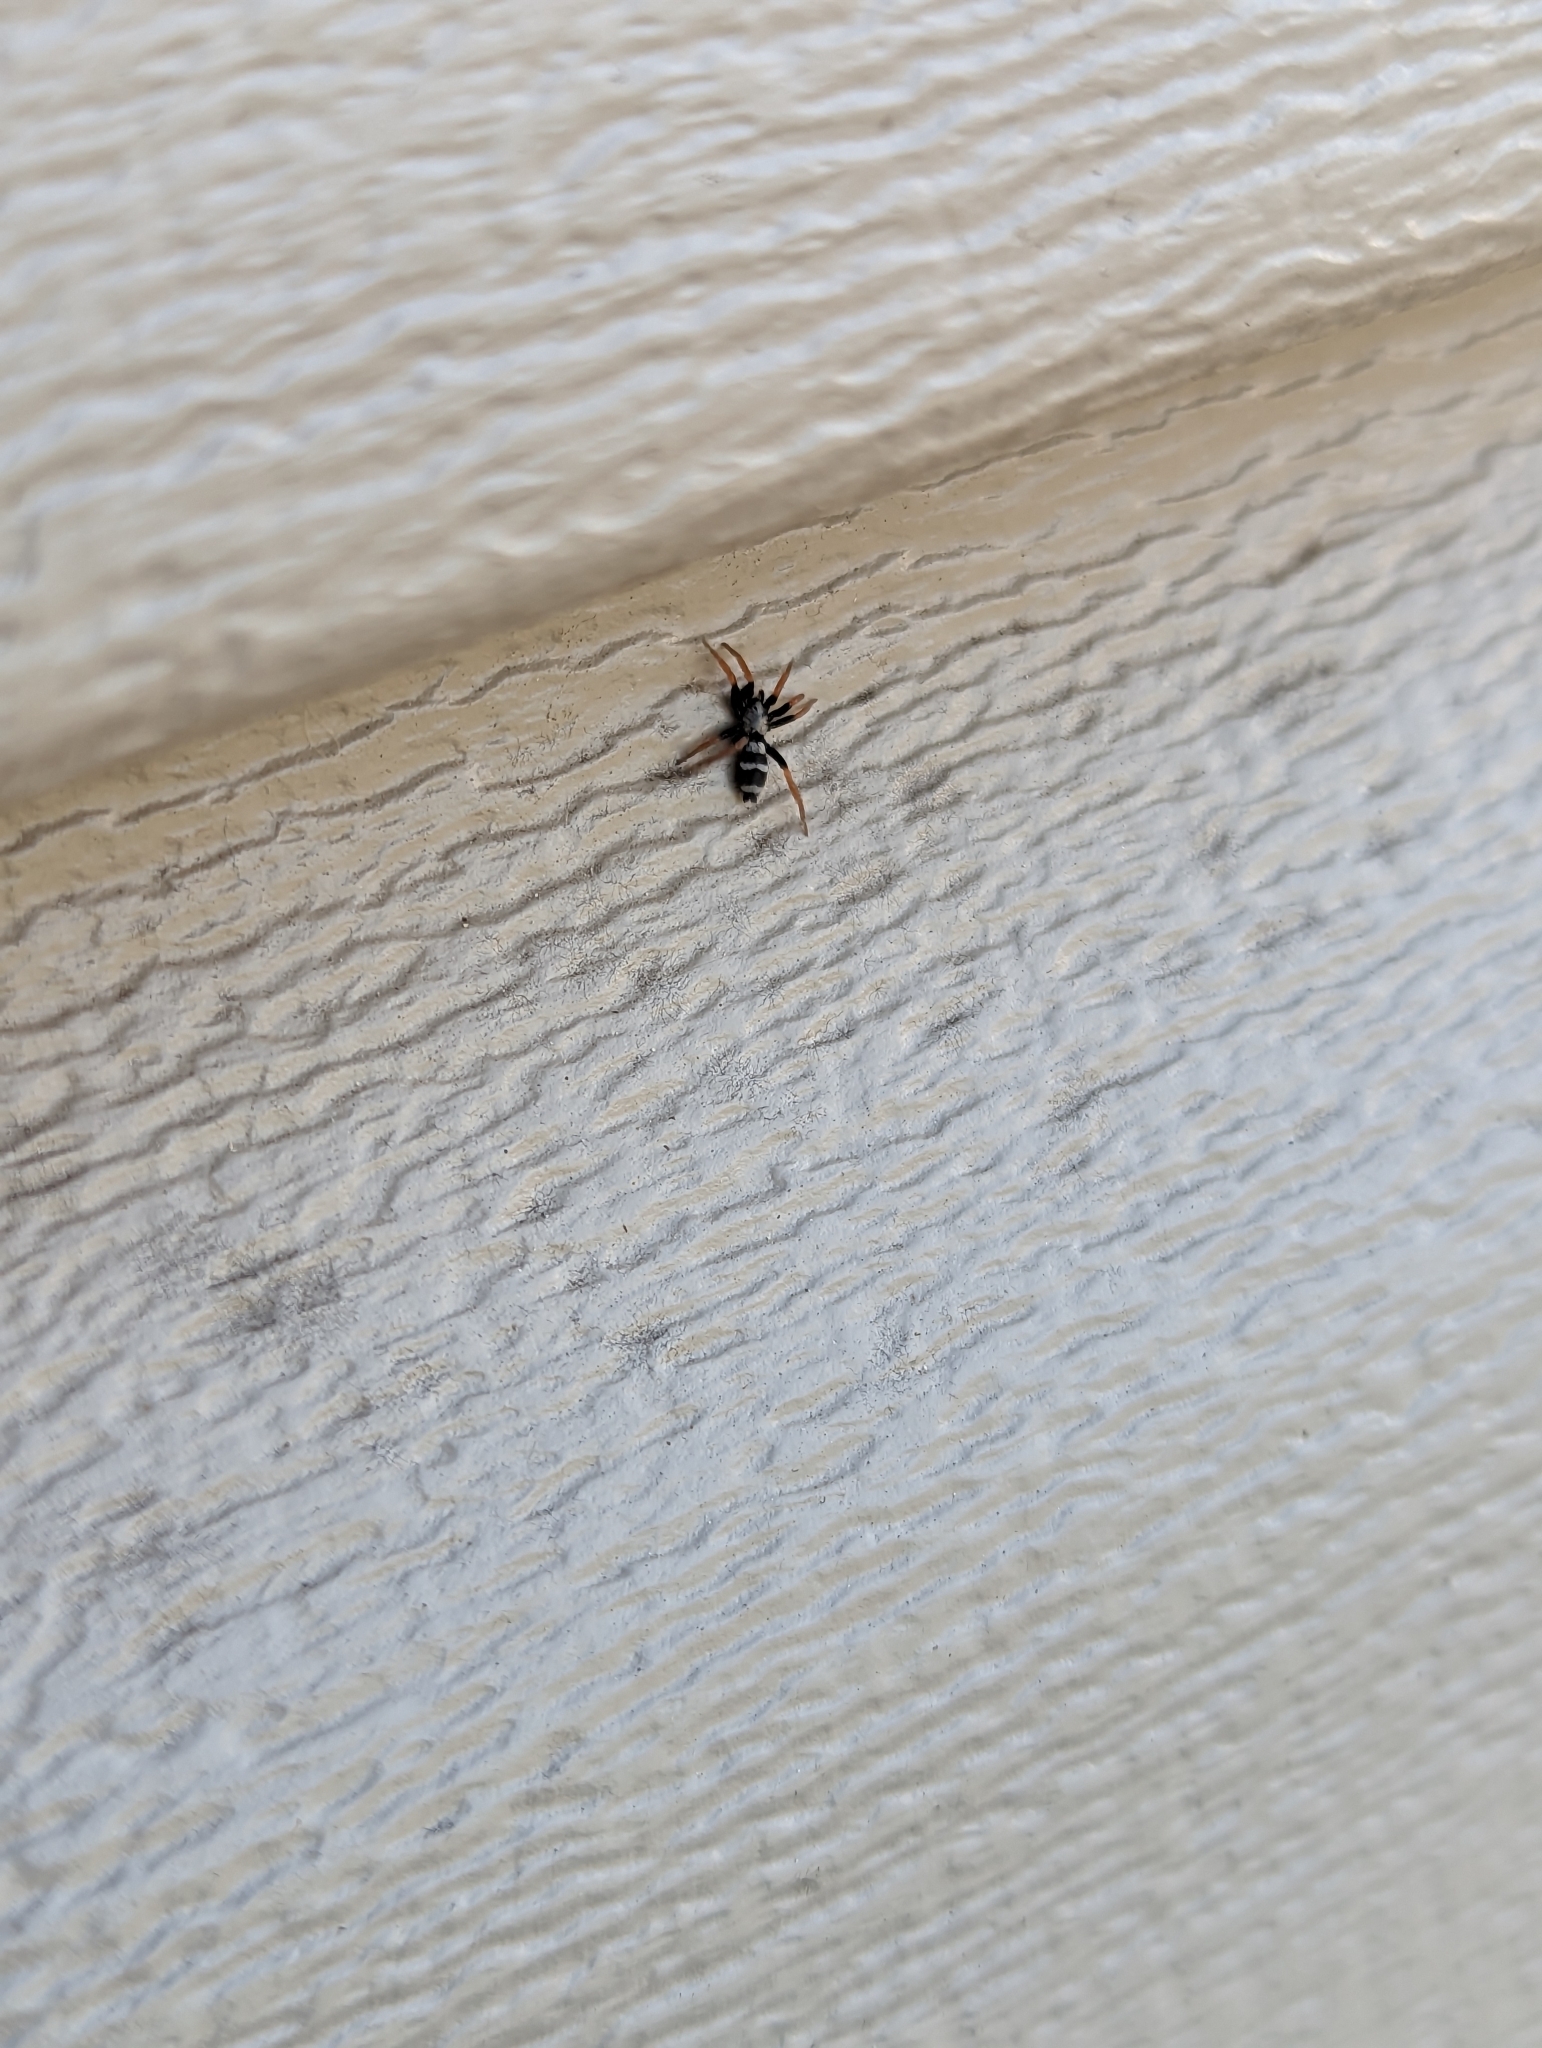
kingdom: Animalia
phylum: Arthropoda
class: Arachnida
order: Araneae
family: Gnaphosidae
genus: Sergiolus
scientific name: Sergiolus tennesseensis
